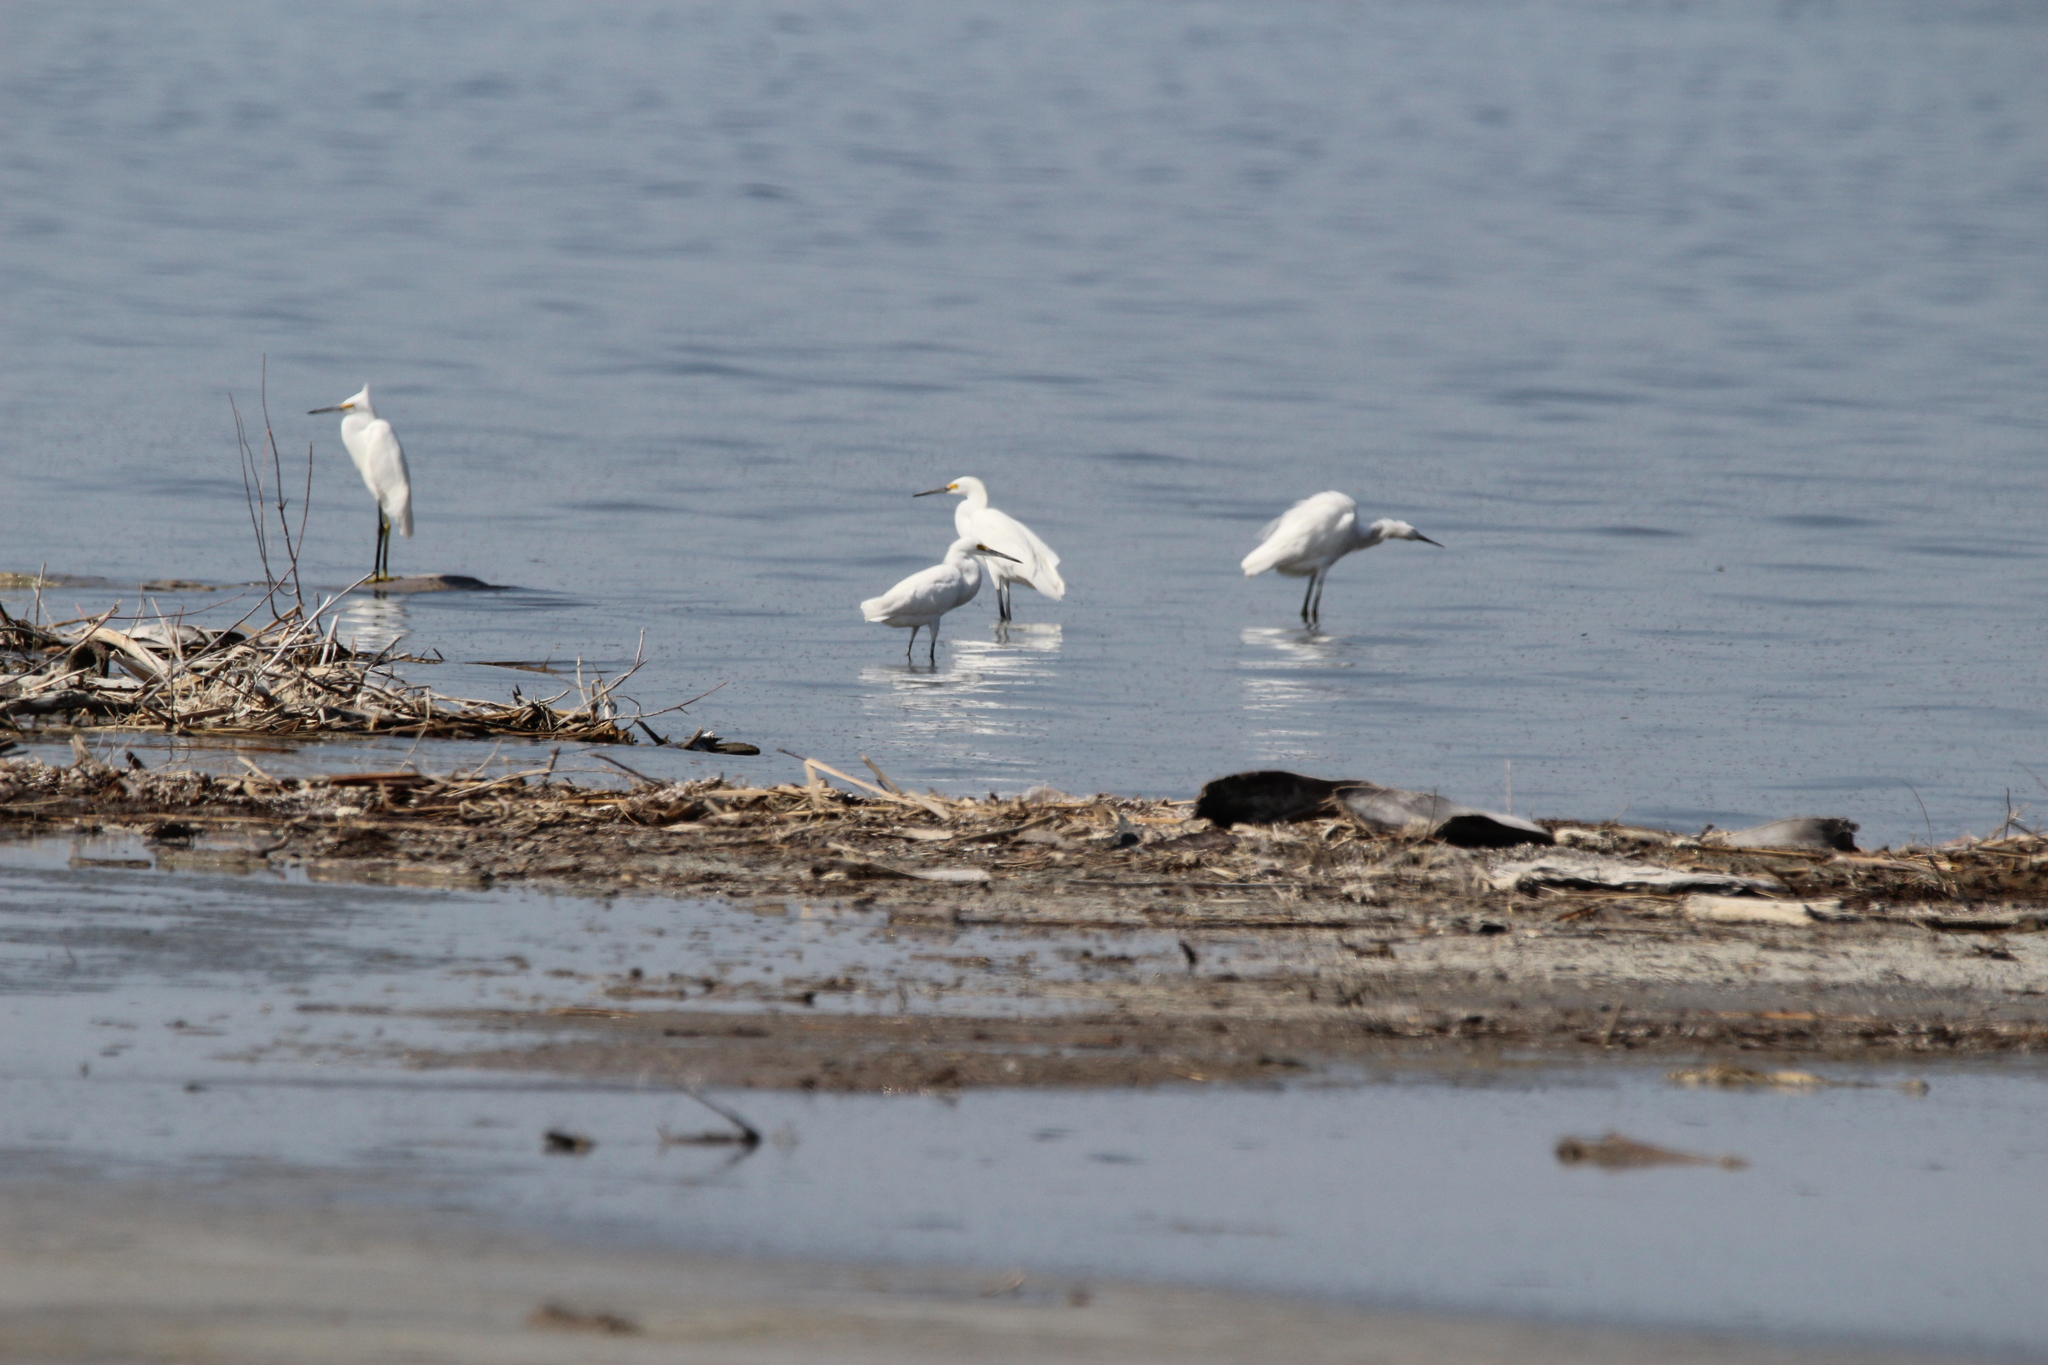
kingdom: Animalia
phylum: Chordata
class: Aves
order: Pelecaniformes
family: Ardeidae
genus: Egretta
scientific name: Egretta thula
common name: Snowy egret
